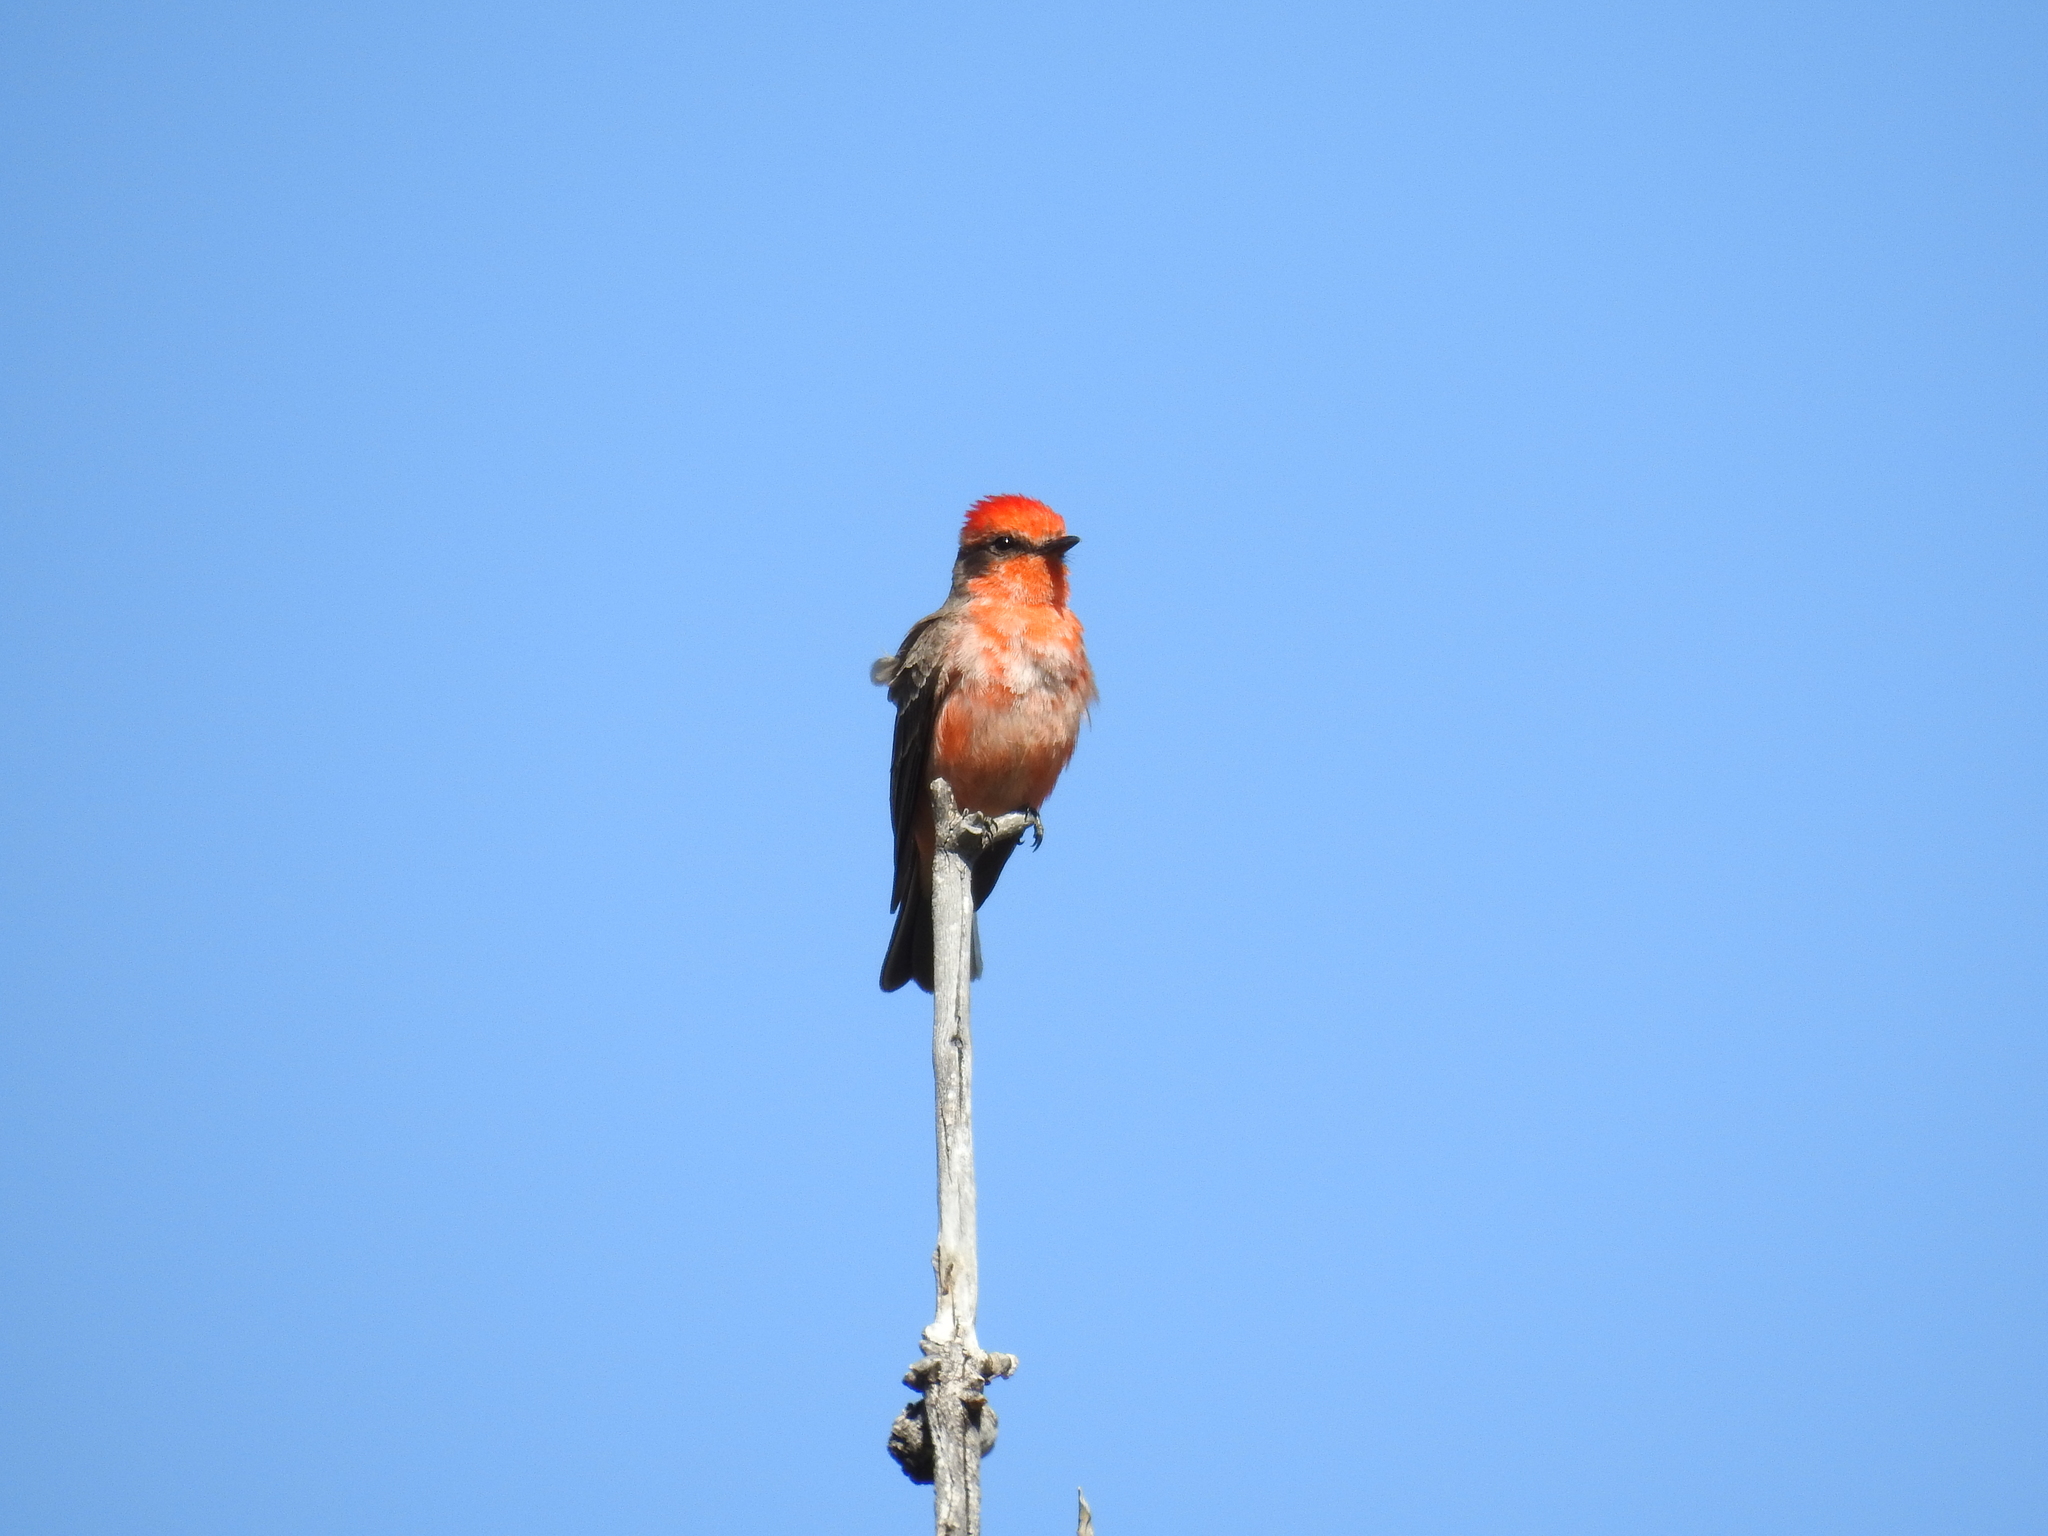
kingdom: Animalia
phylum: Chordata
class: Aves
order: Passeriformes
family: Tyrannidae
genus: Pyrocephalus
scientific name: Pyrocephalus rubinus
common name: Vermilion flycatcher
